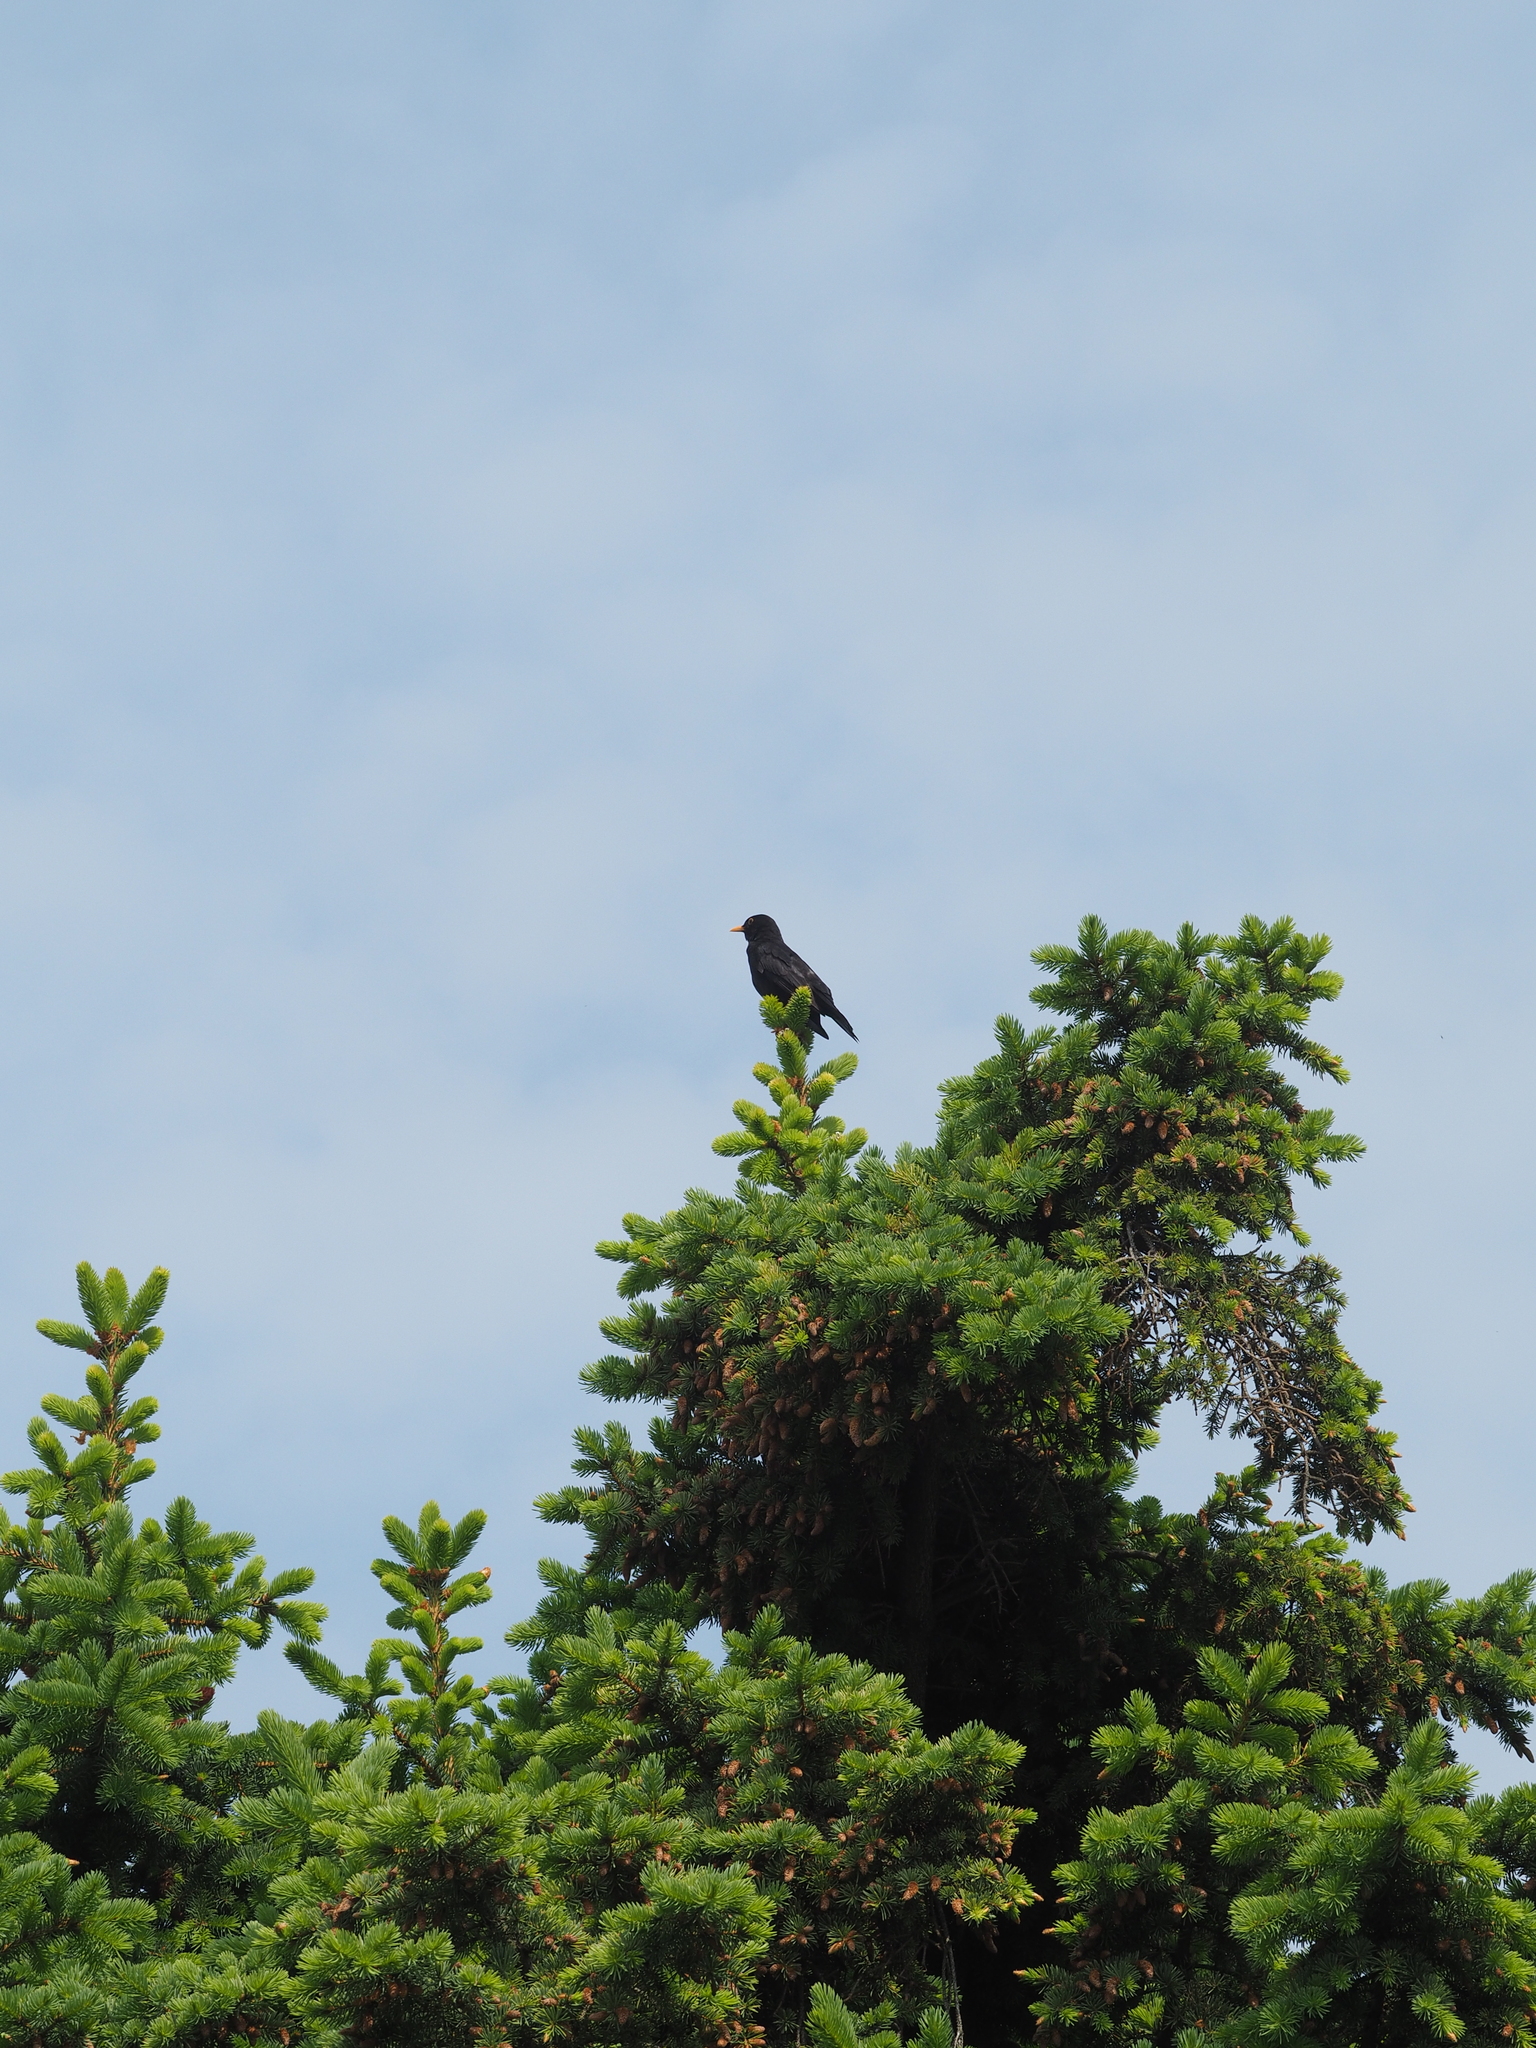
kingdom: Animalia
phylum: Chordata
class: Aves
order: Passeriformes
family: Turdidae
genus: Turdus
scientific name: Turdus merula
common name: Common blackbird
